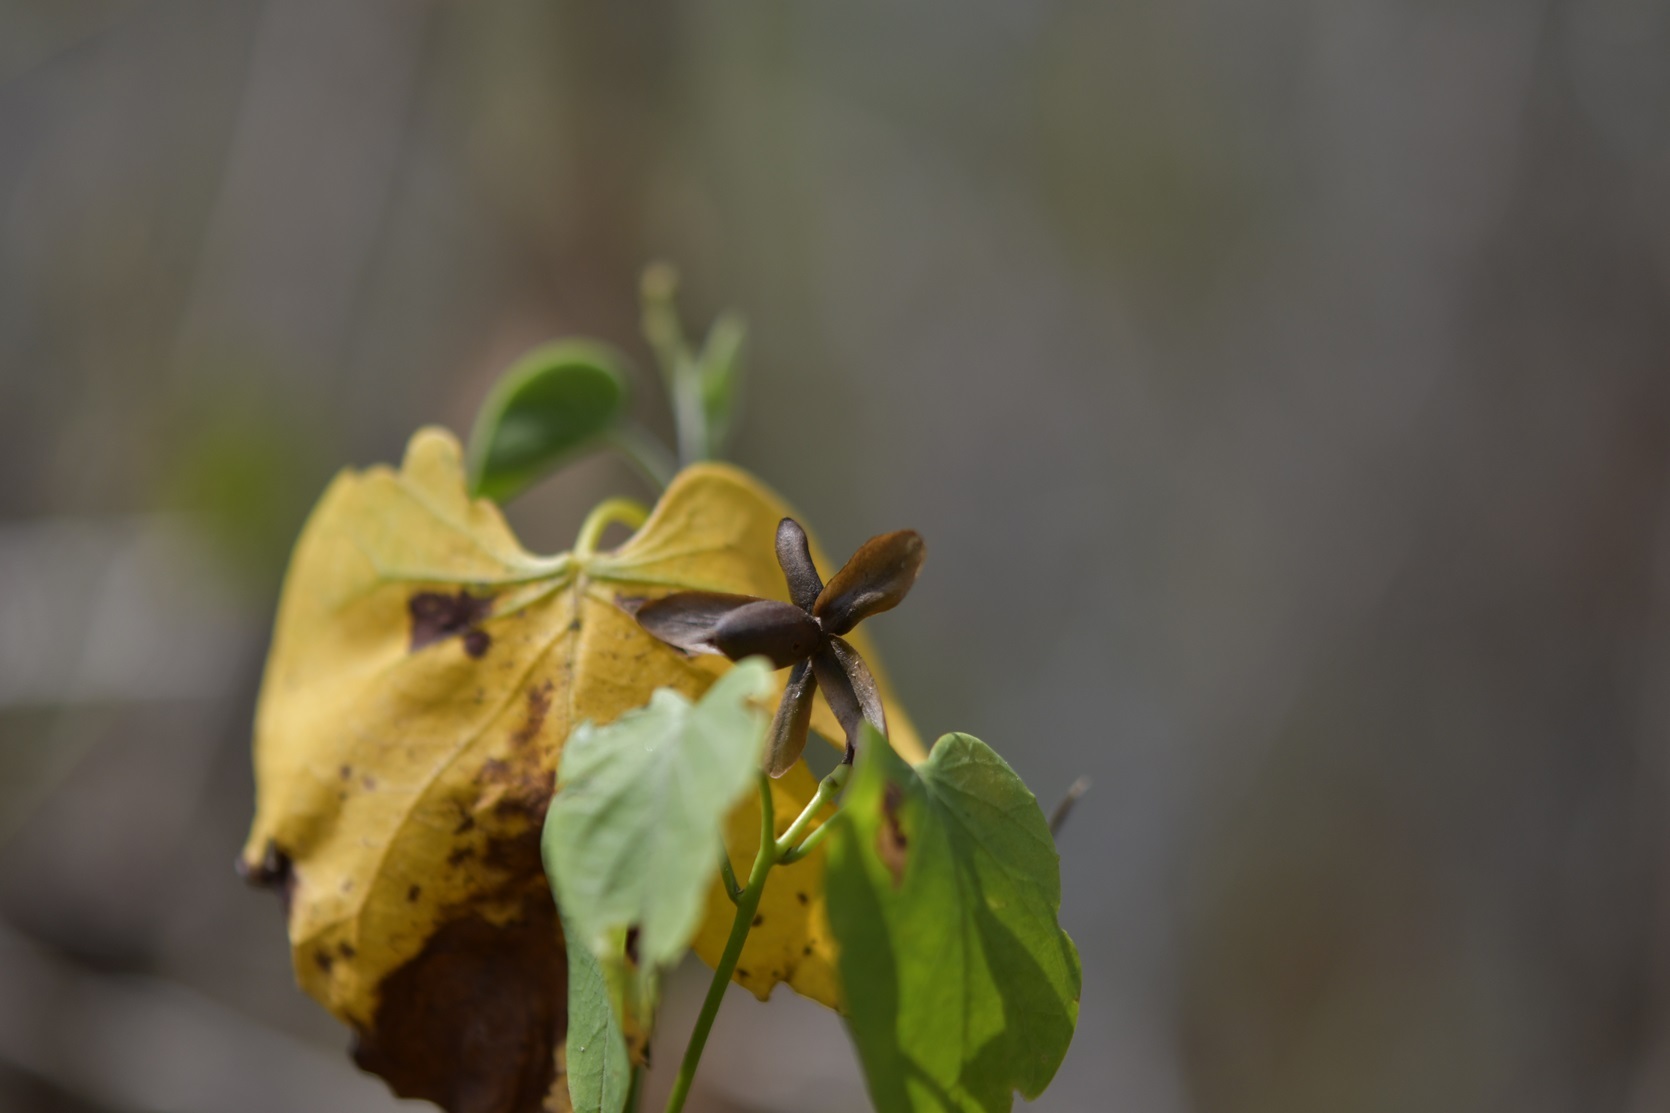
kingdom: Plantae
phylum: Tracheophyta
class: Magnoliopsida
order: Solanales
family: Convolvulaceae
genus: Ipomoea
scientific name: Ipomoea corymbosa
